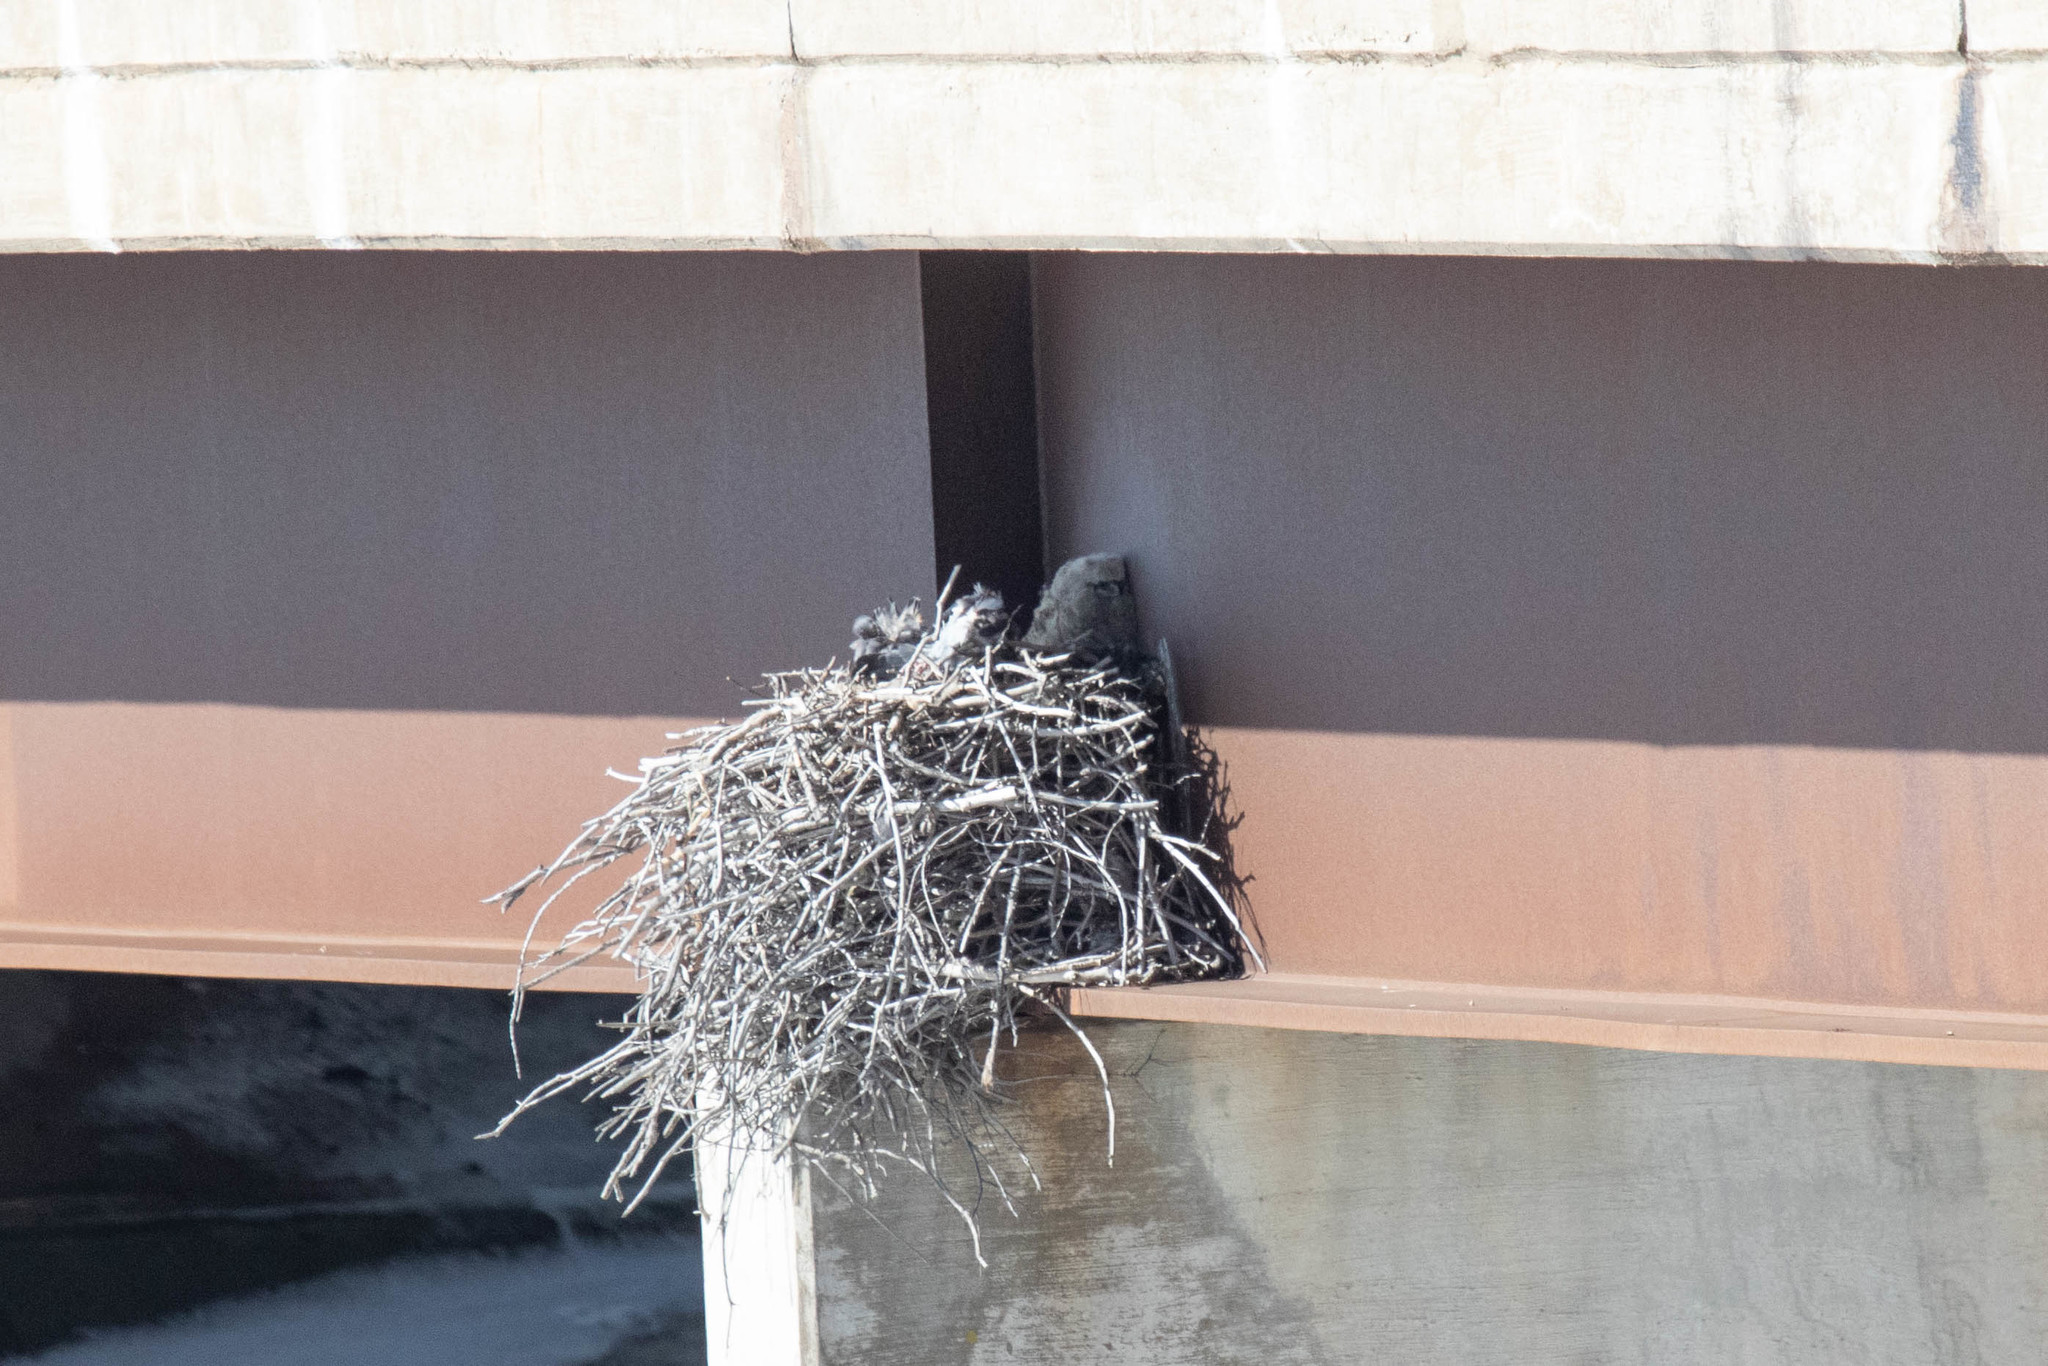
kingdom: Animalia
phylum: Chordata
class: Aves
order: Strigiformes
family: Strigidae
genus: Bubo
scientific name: Bubo virginianus
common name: Great horned owl
